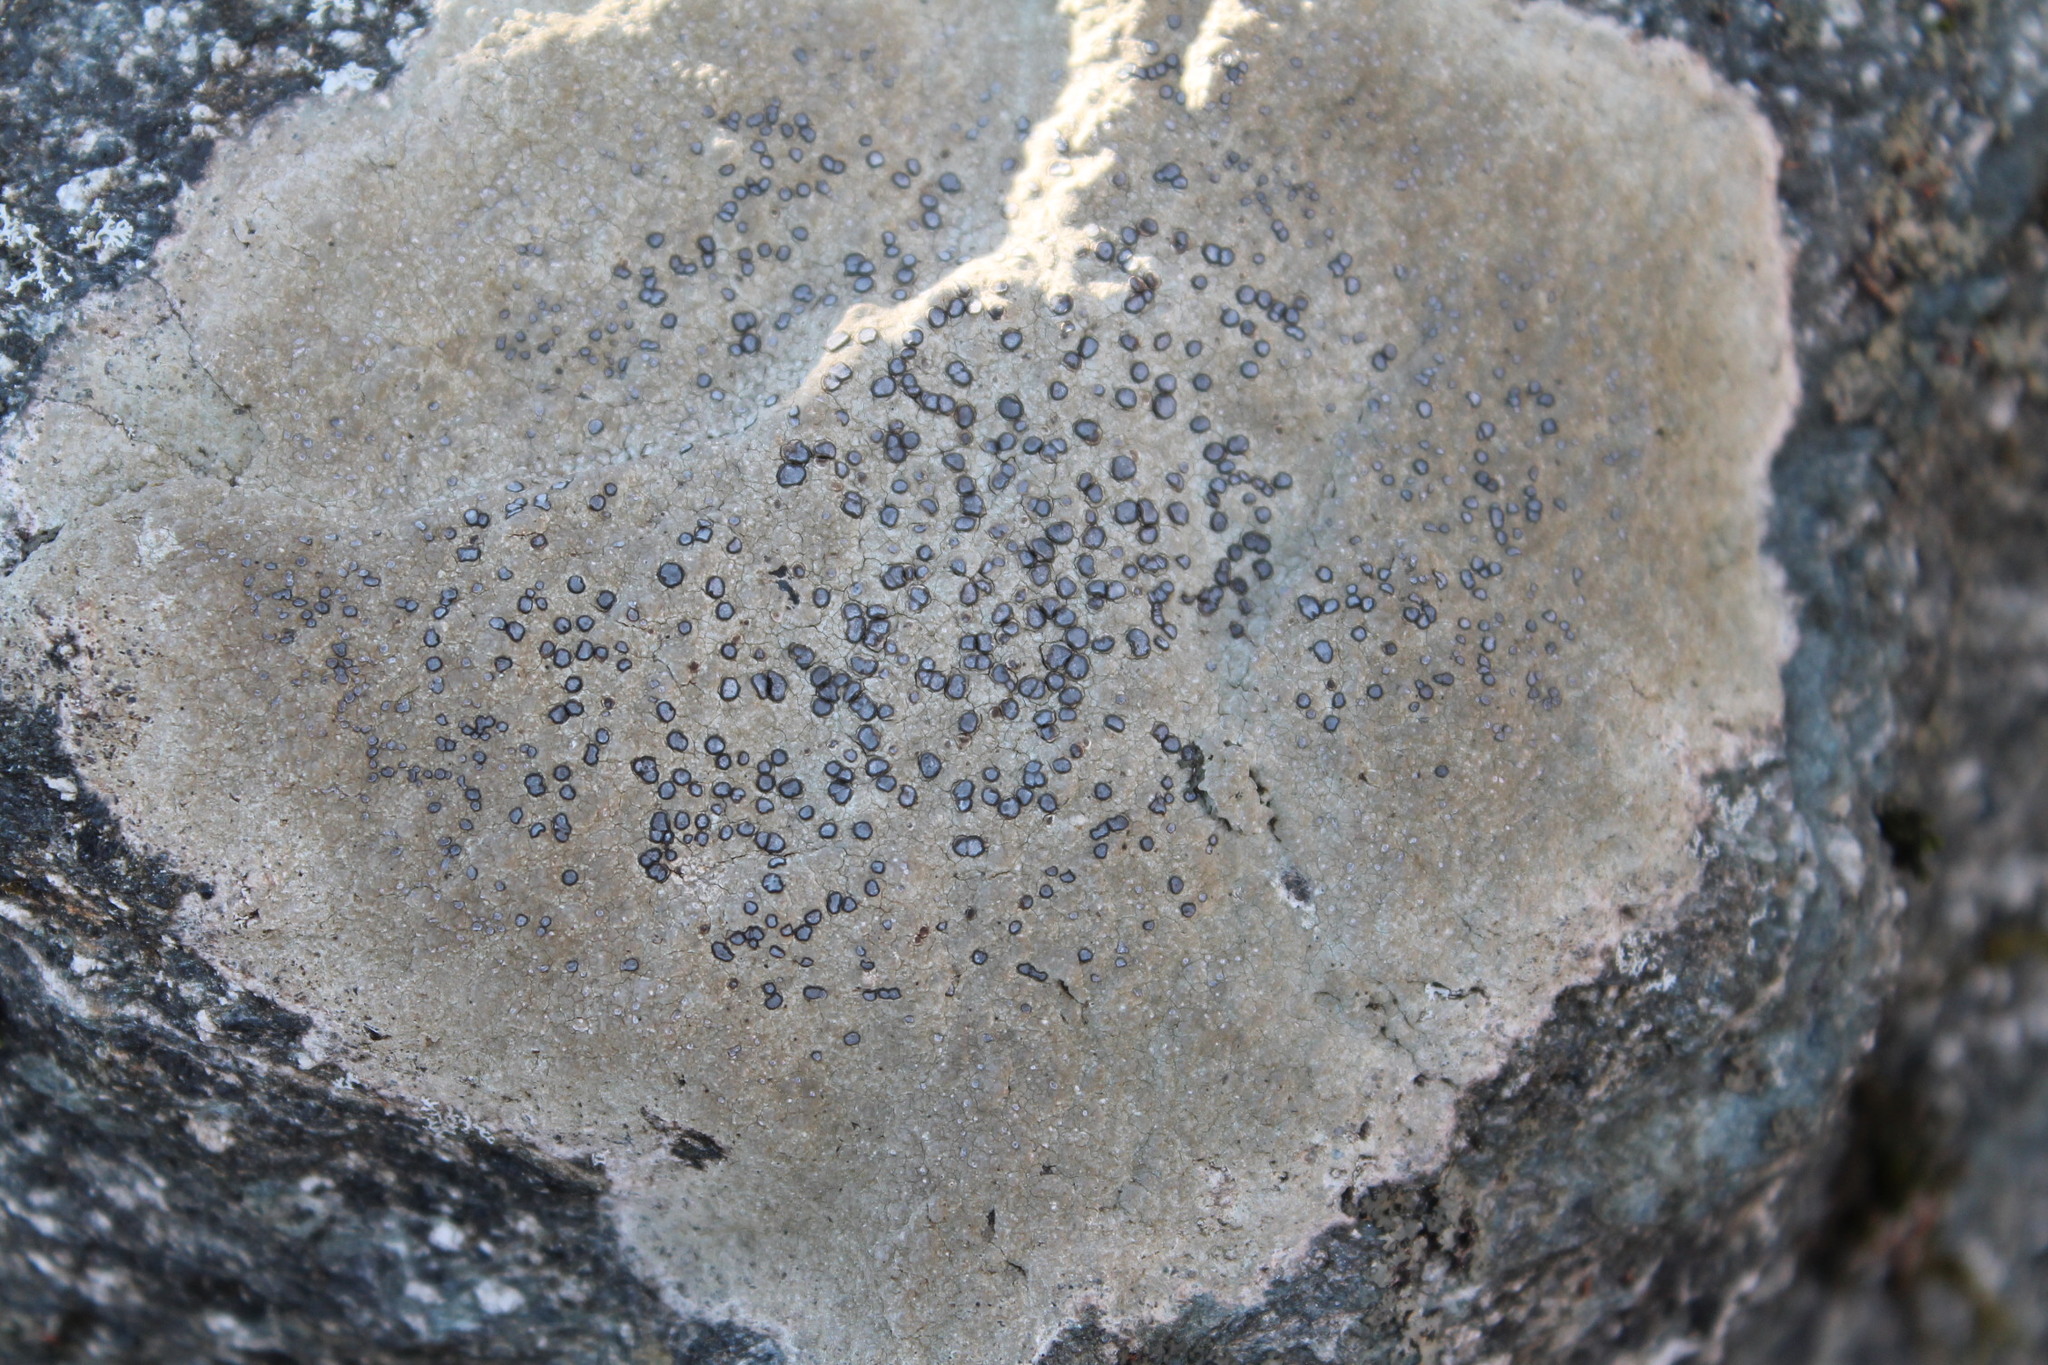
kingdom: Fungi
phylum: Ascomycota
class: Lecanoromycetes
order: Lecideales
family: Lecideaceae
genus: Porpidia
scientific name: Porpidia albocaerulescens
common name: Smokey-eyed boulder lichen
